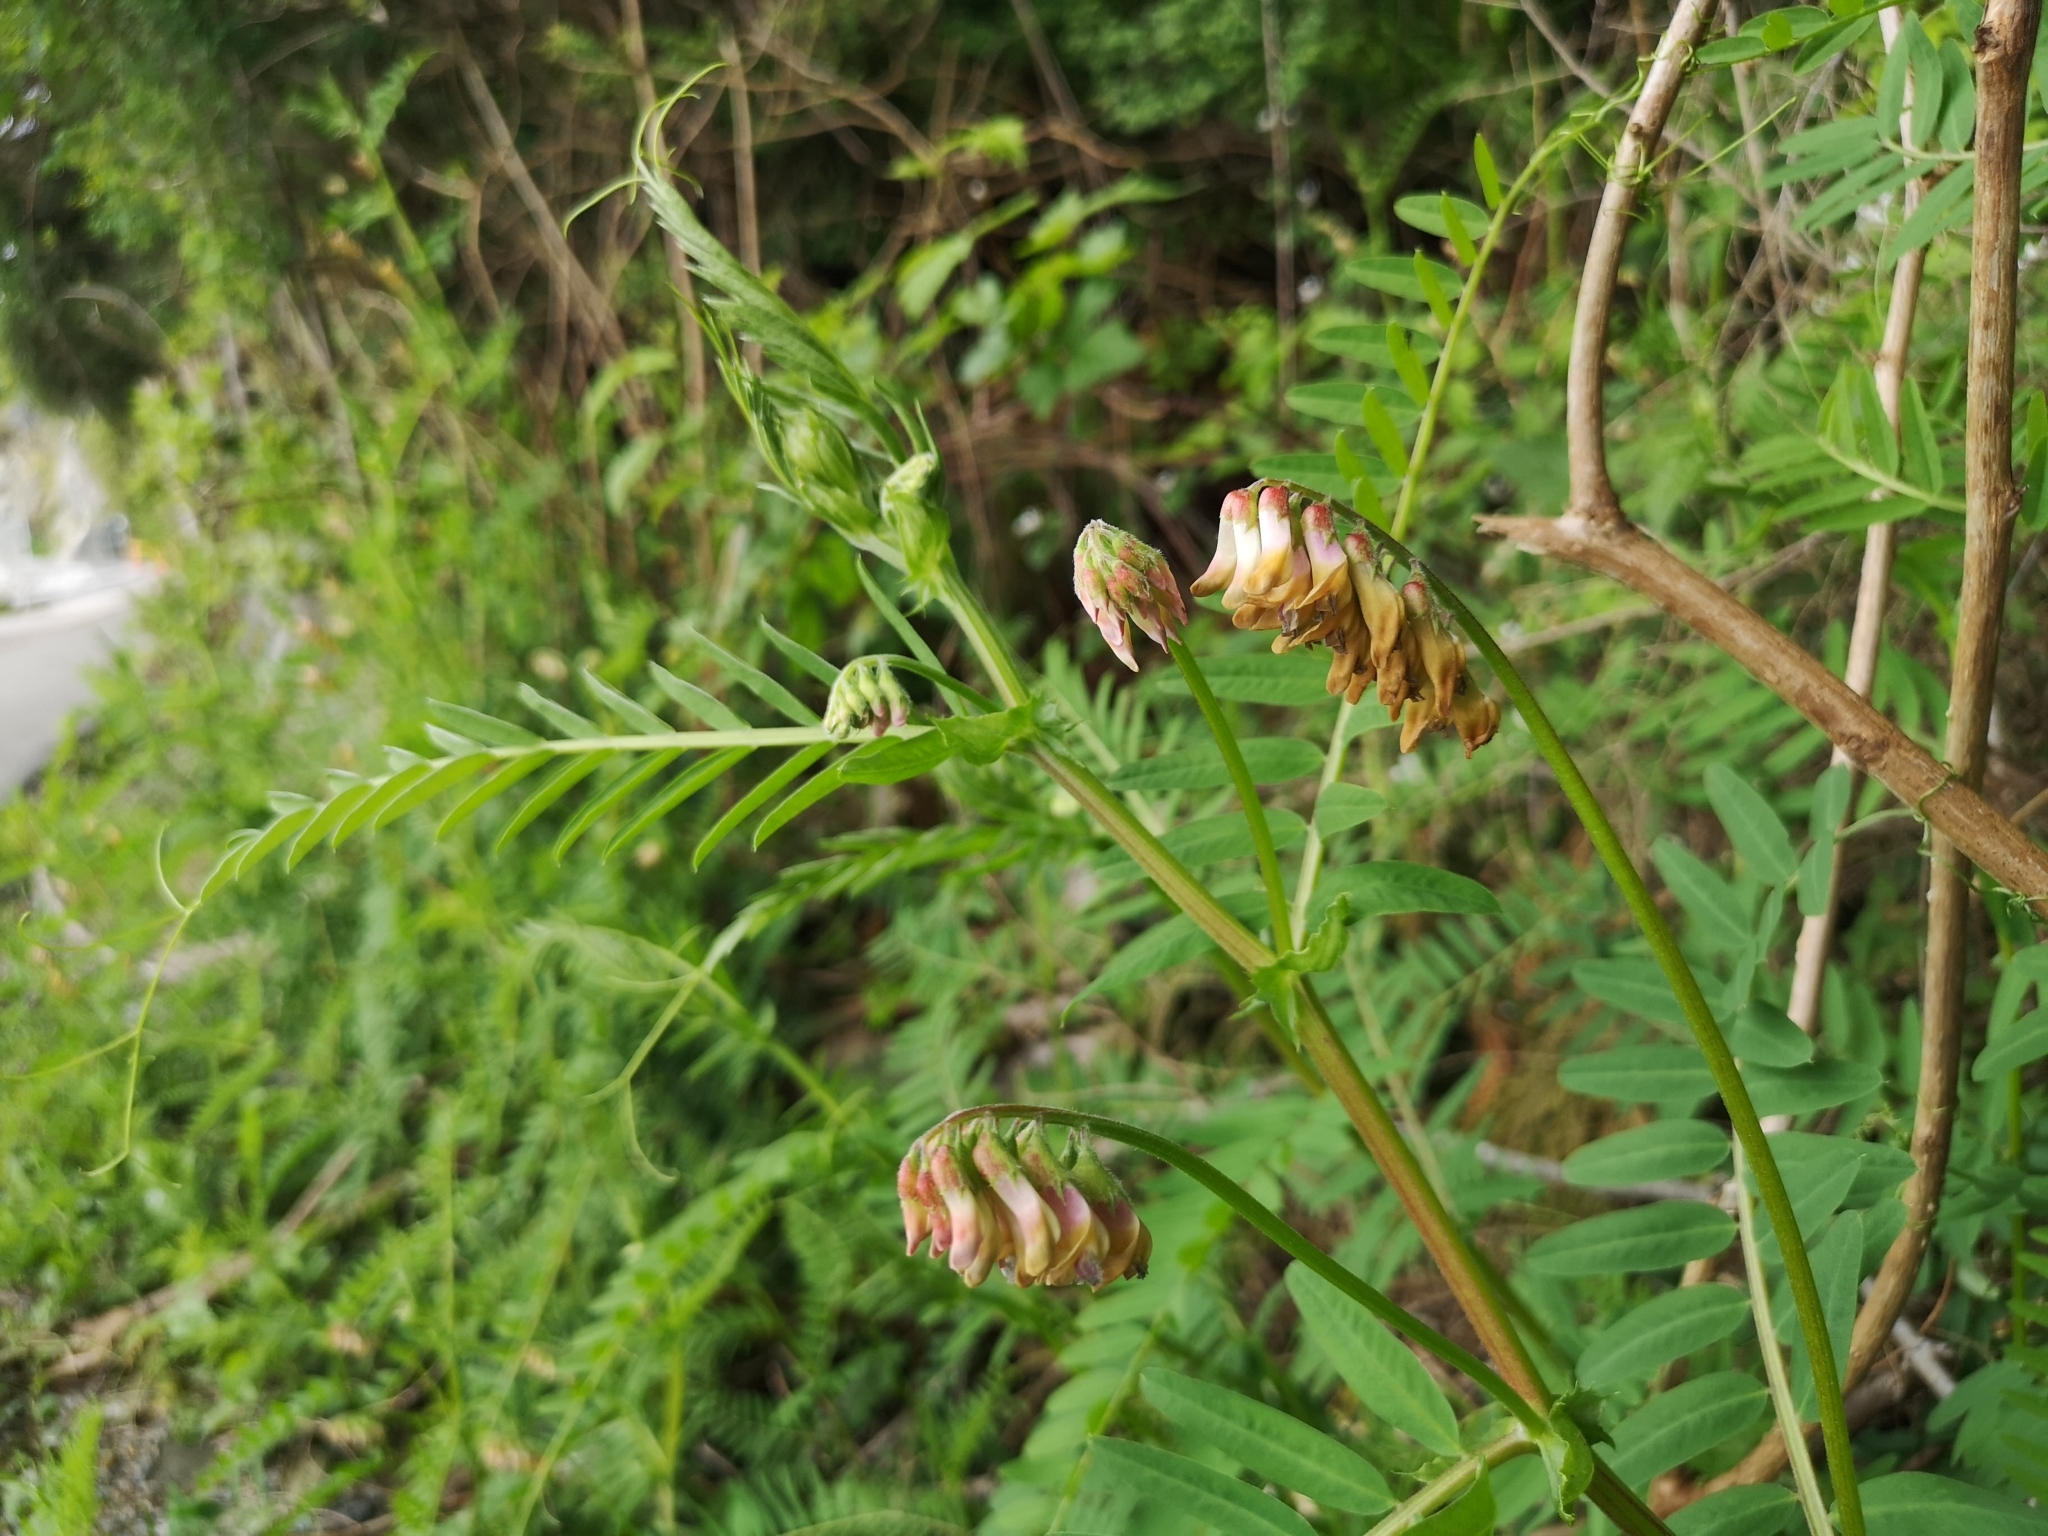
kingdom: Plantae
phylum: Tracheophyta
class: Magnoliopsida
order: Fabales
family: Fabaceae
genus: Vicia
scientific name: Vicia
